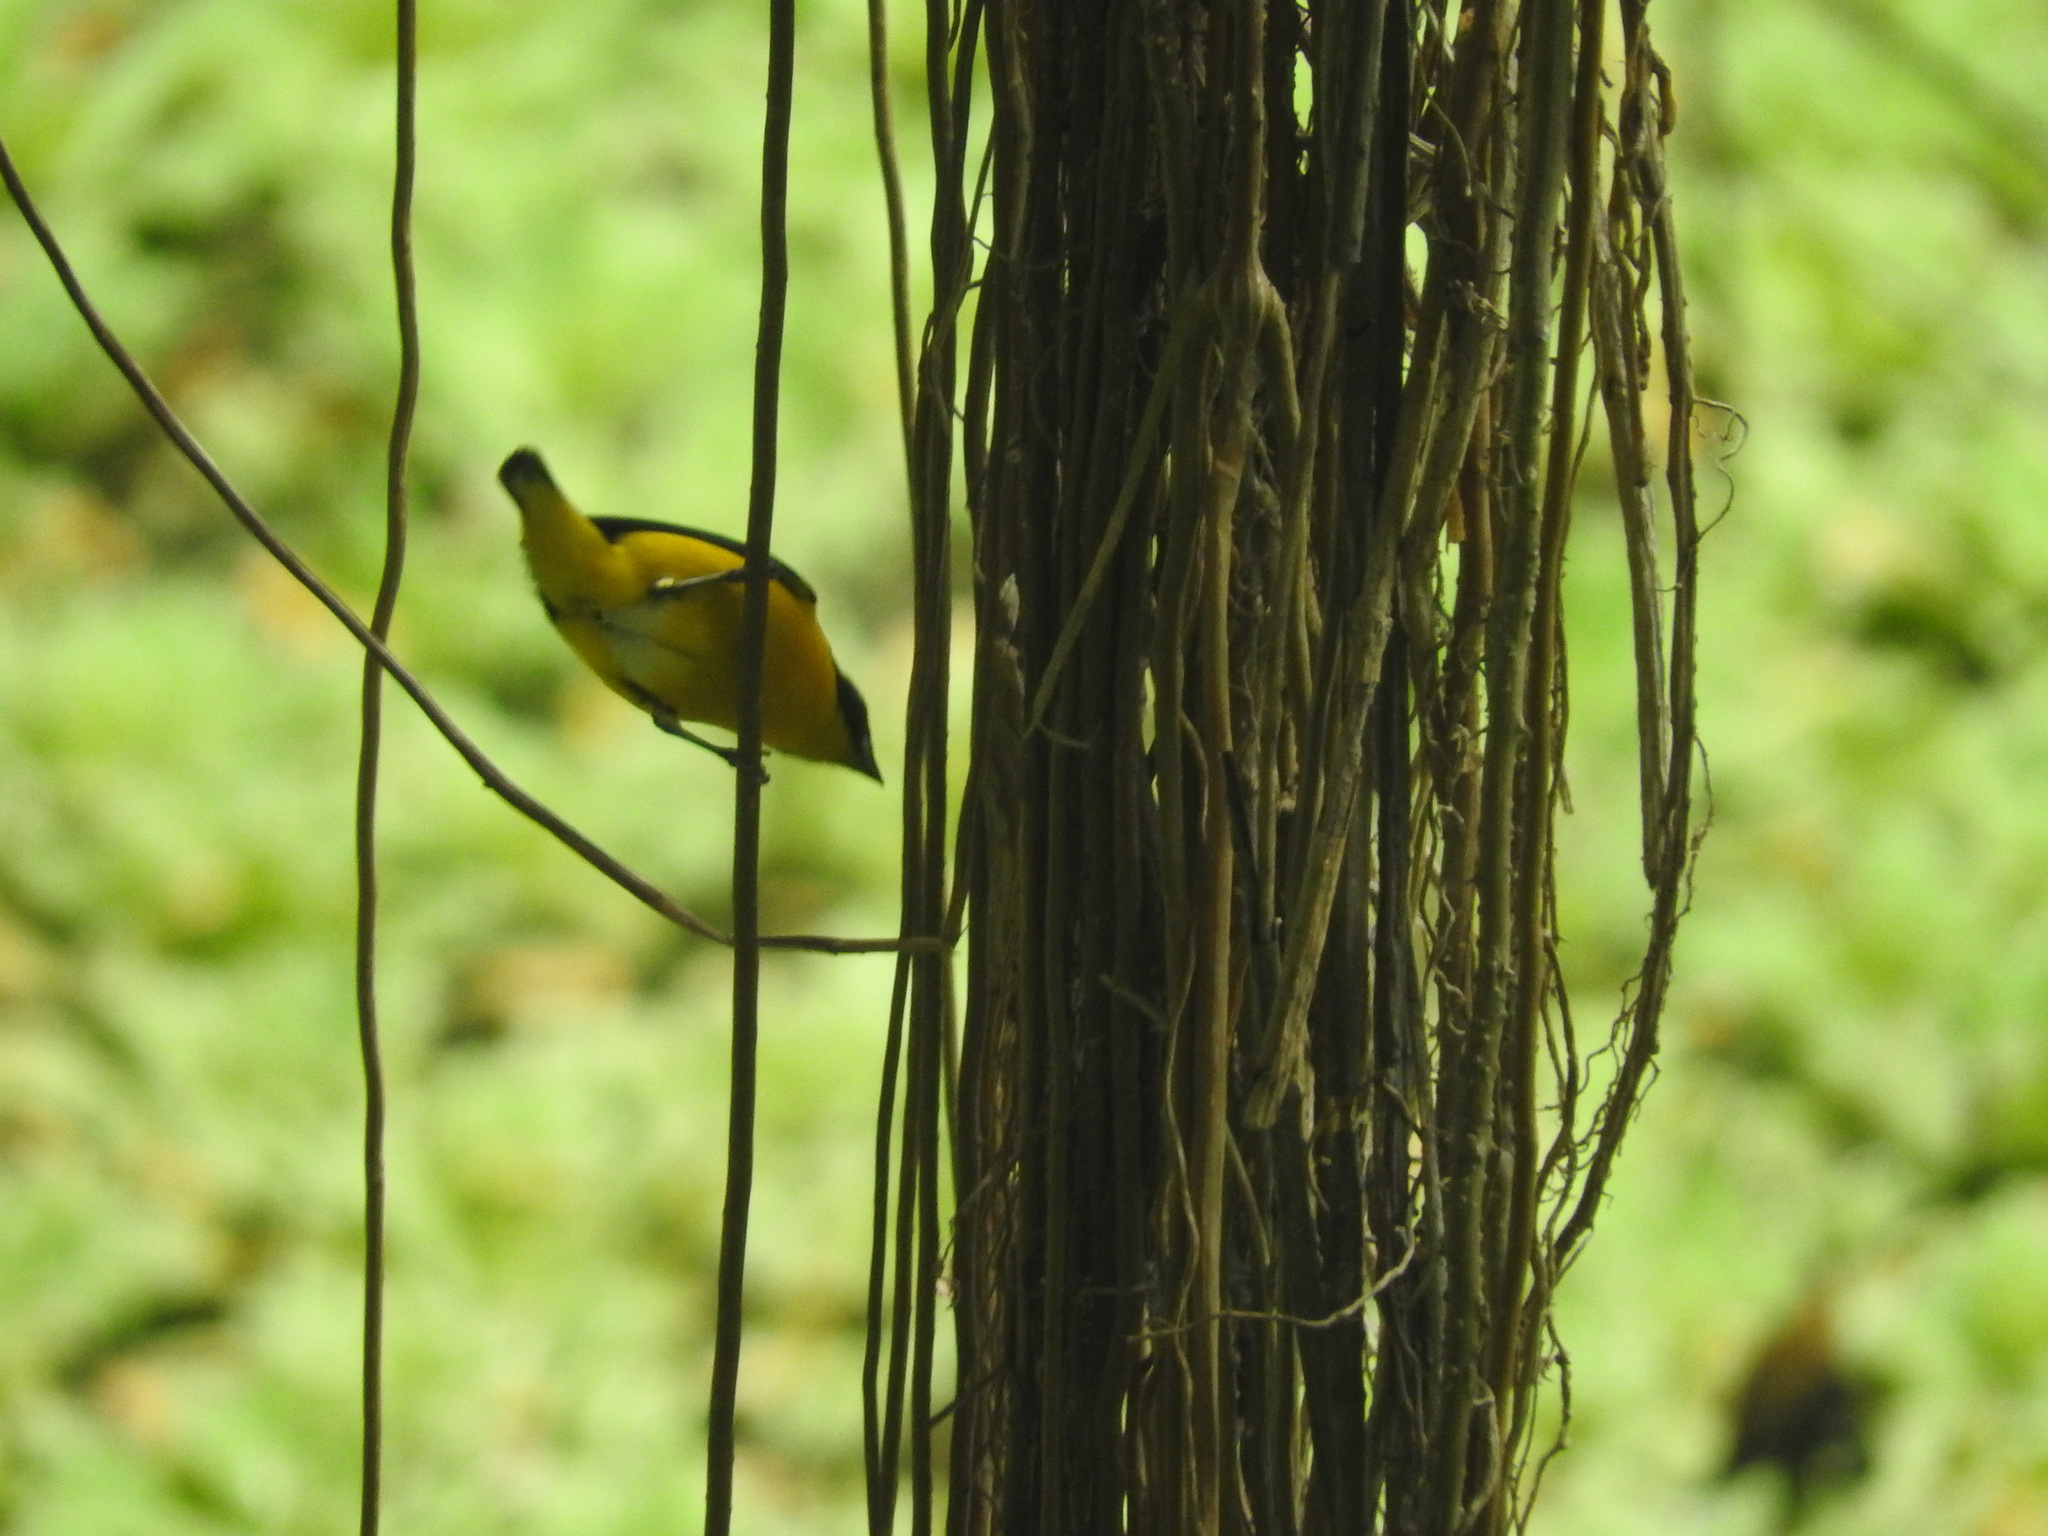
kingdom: Animalia
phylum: Chordata
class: Aves
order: Passeriformes
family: Fringillidae
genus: Euphonia
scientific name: Euphonia affinis
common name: Scrub euphonia
